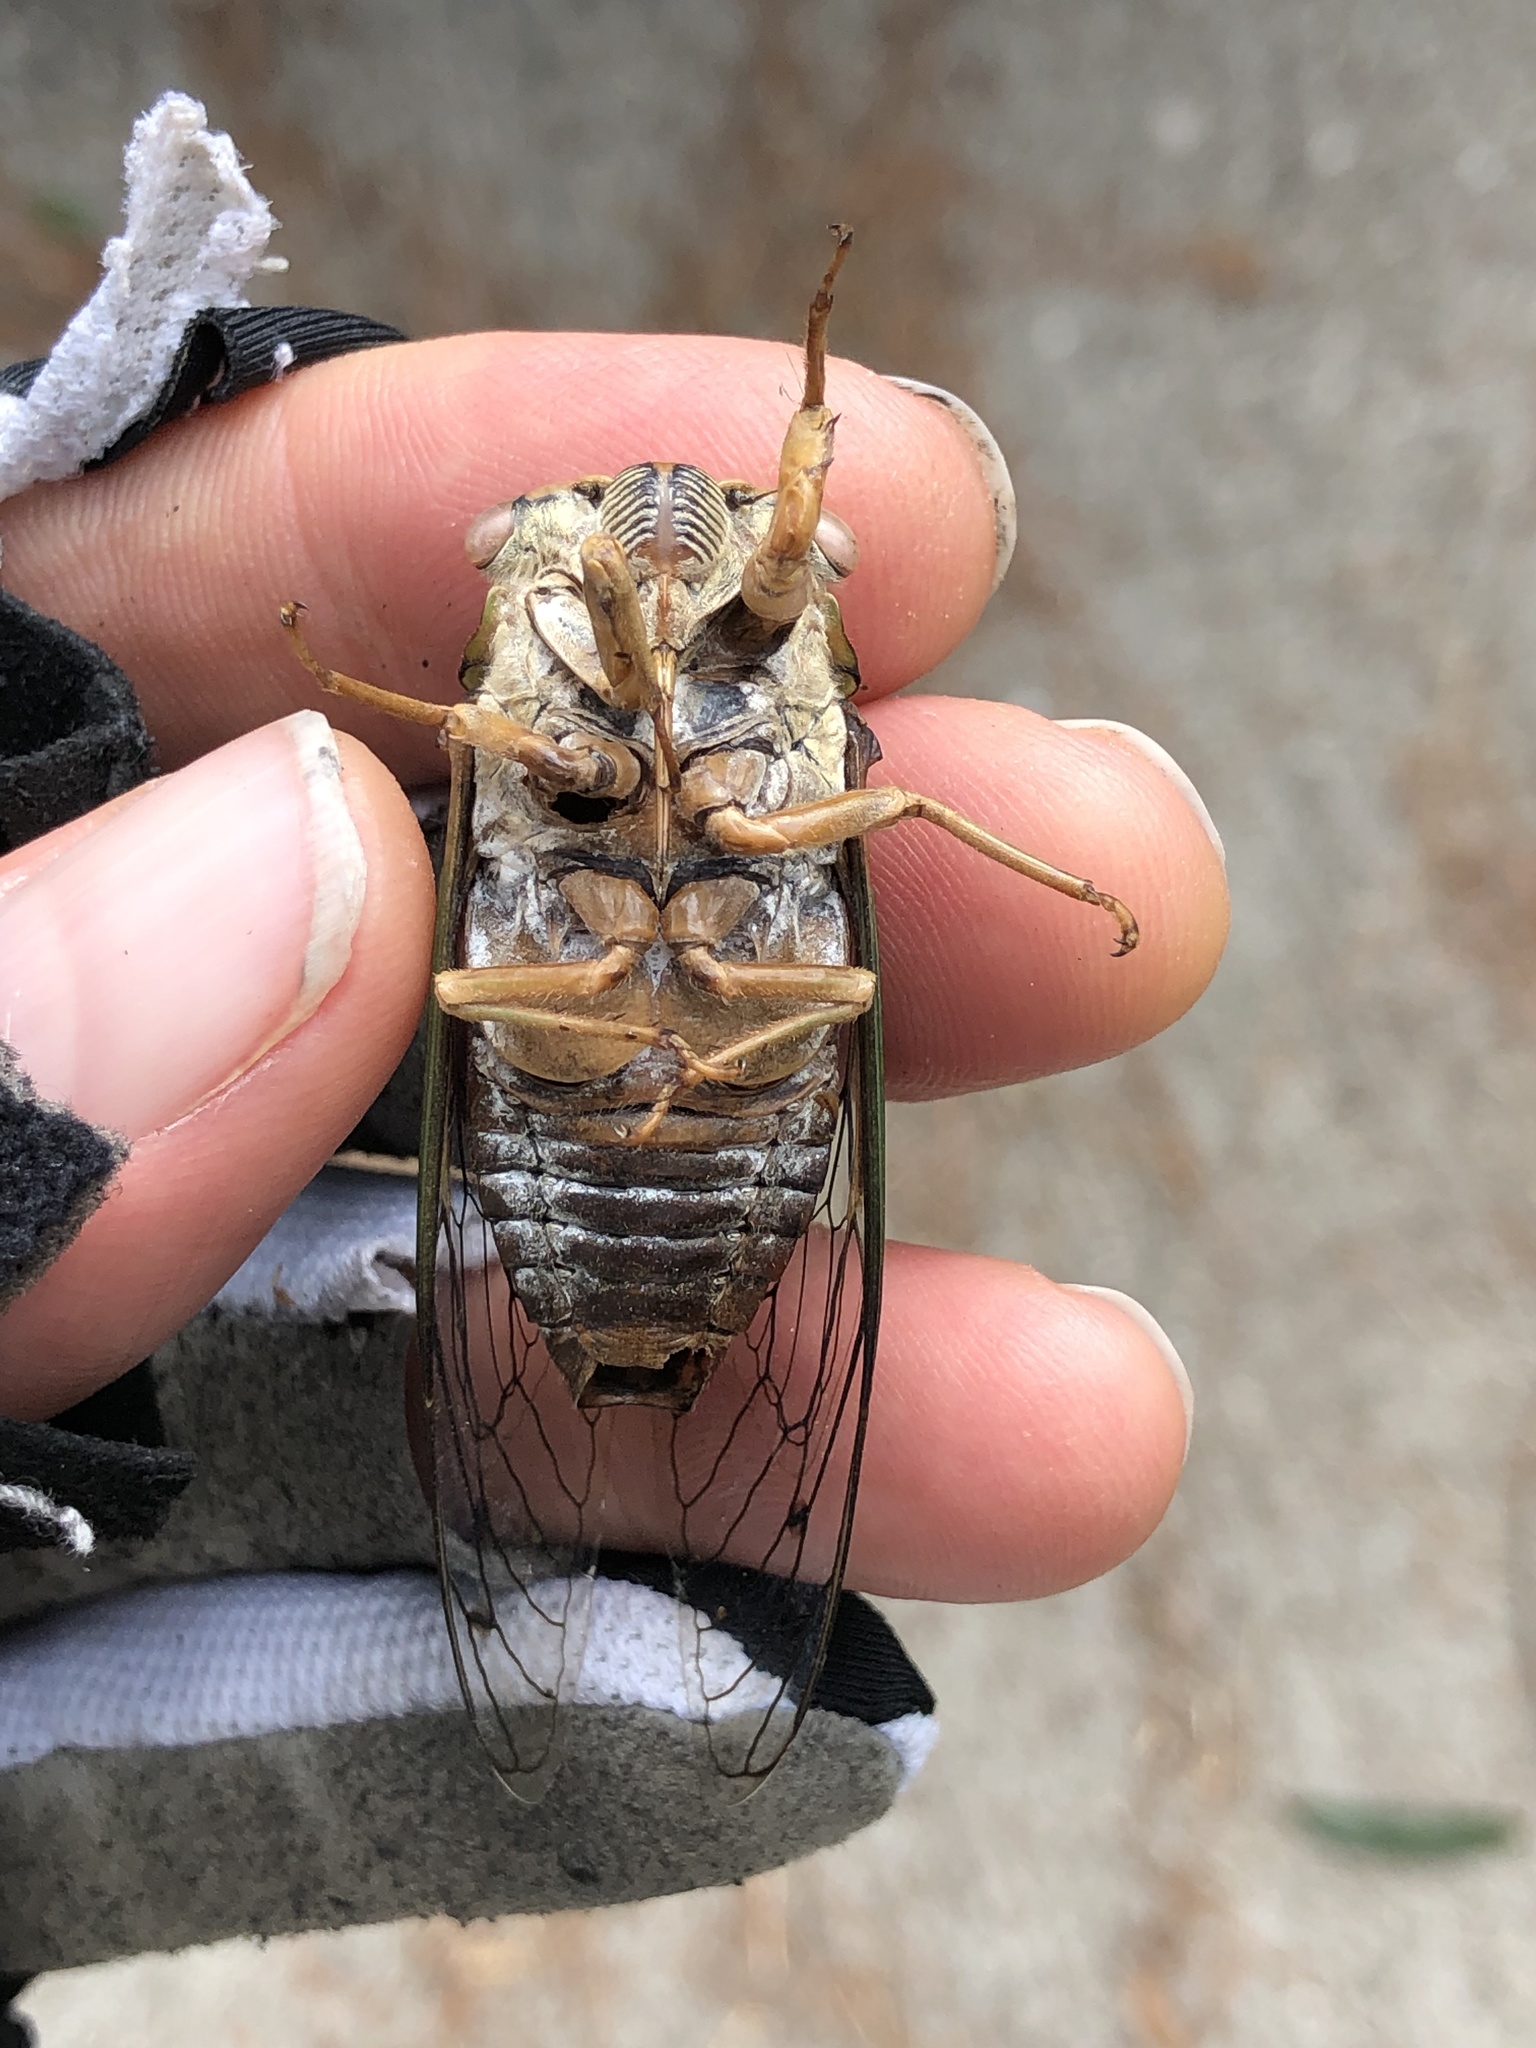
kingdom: Animalia
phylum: Arthropoda
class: Insecta
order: Hemiptera
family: Cicadidae
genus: Megatibicen
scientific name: Megatibicen resh
